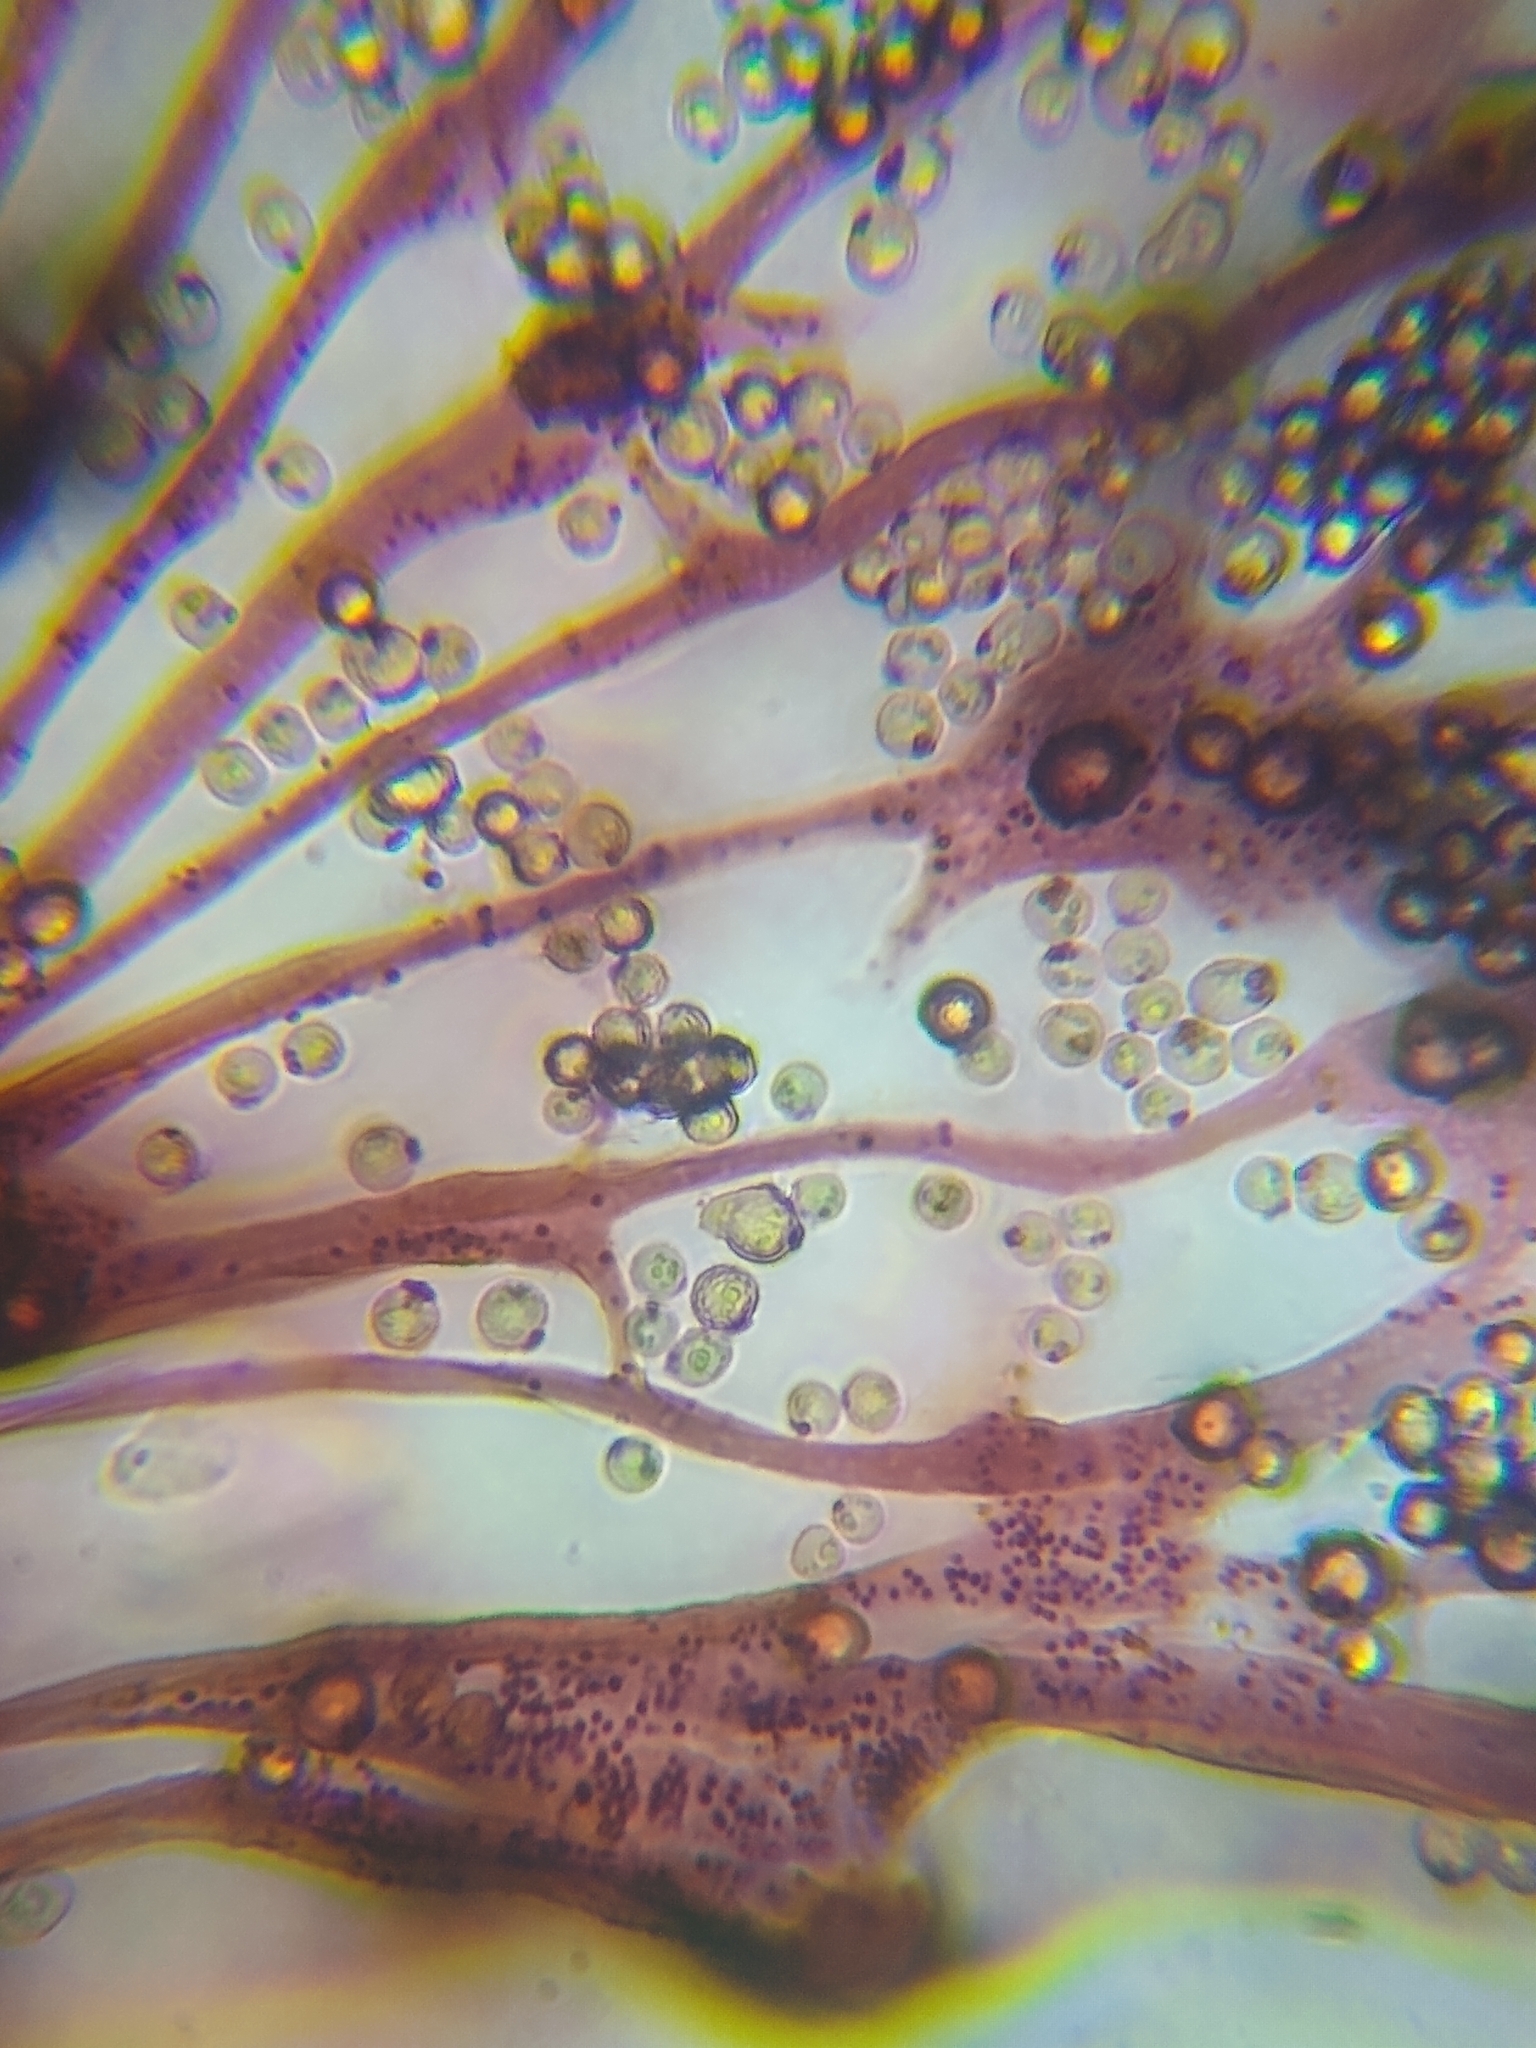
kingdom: Protozoa
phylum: Mycetozoa
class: Myxomycetes
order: Cribrariales
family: Cribrariaceae
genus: Cribraria
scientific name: Cribraria mirabilis
